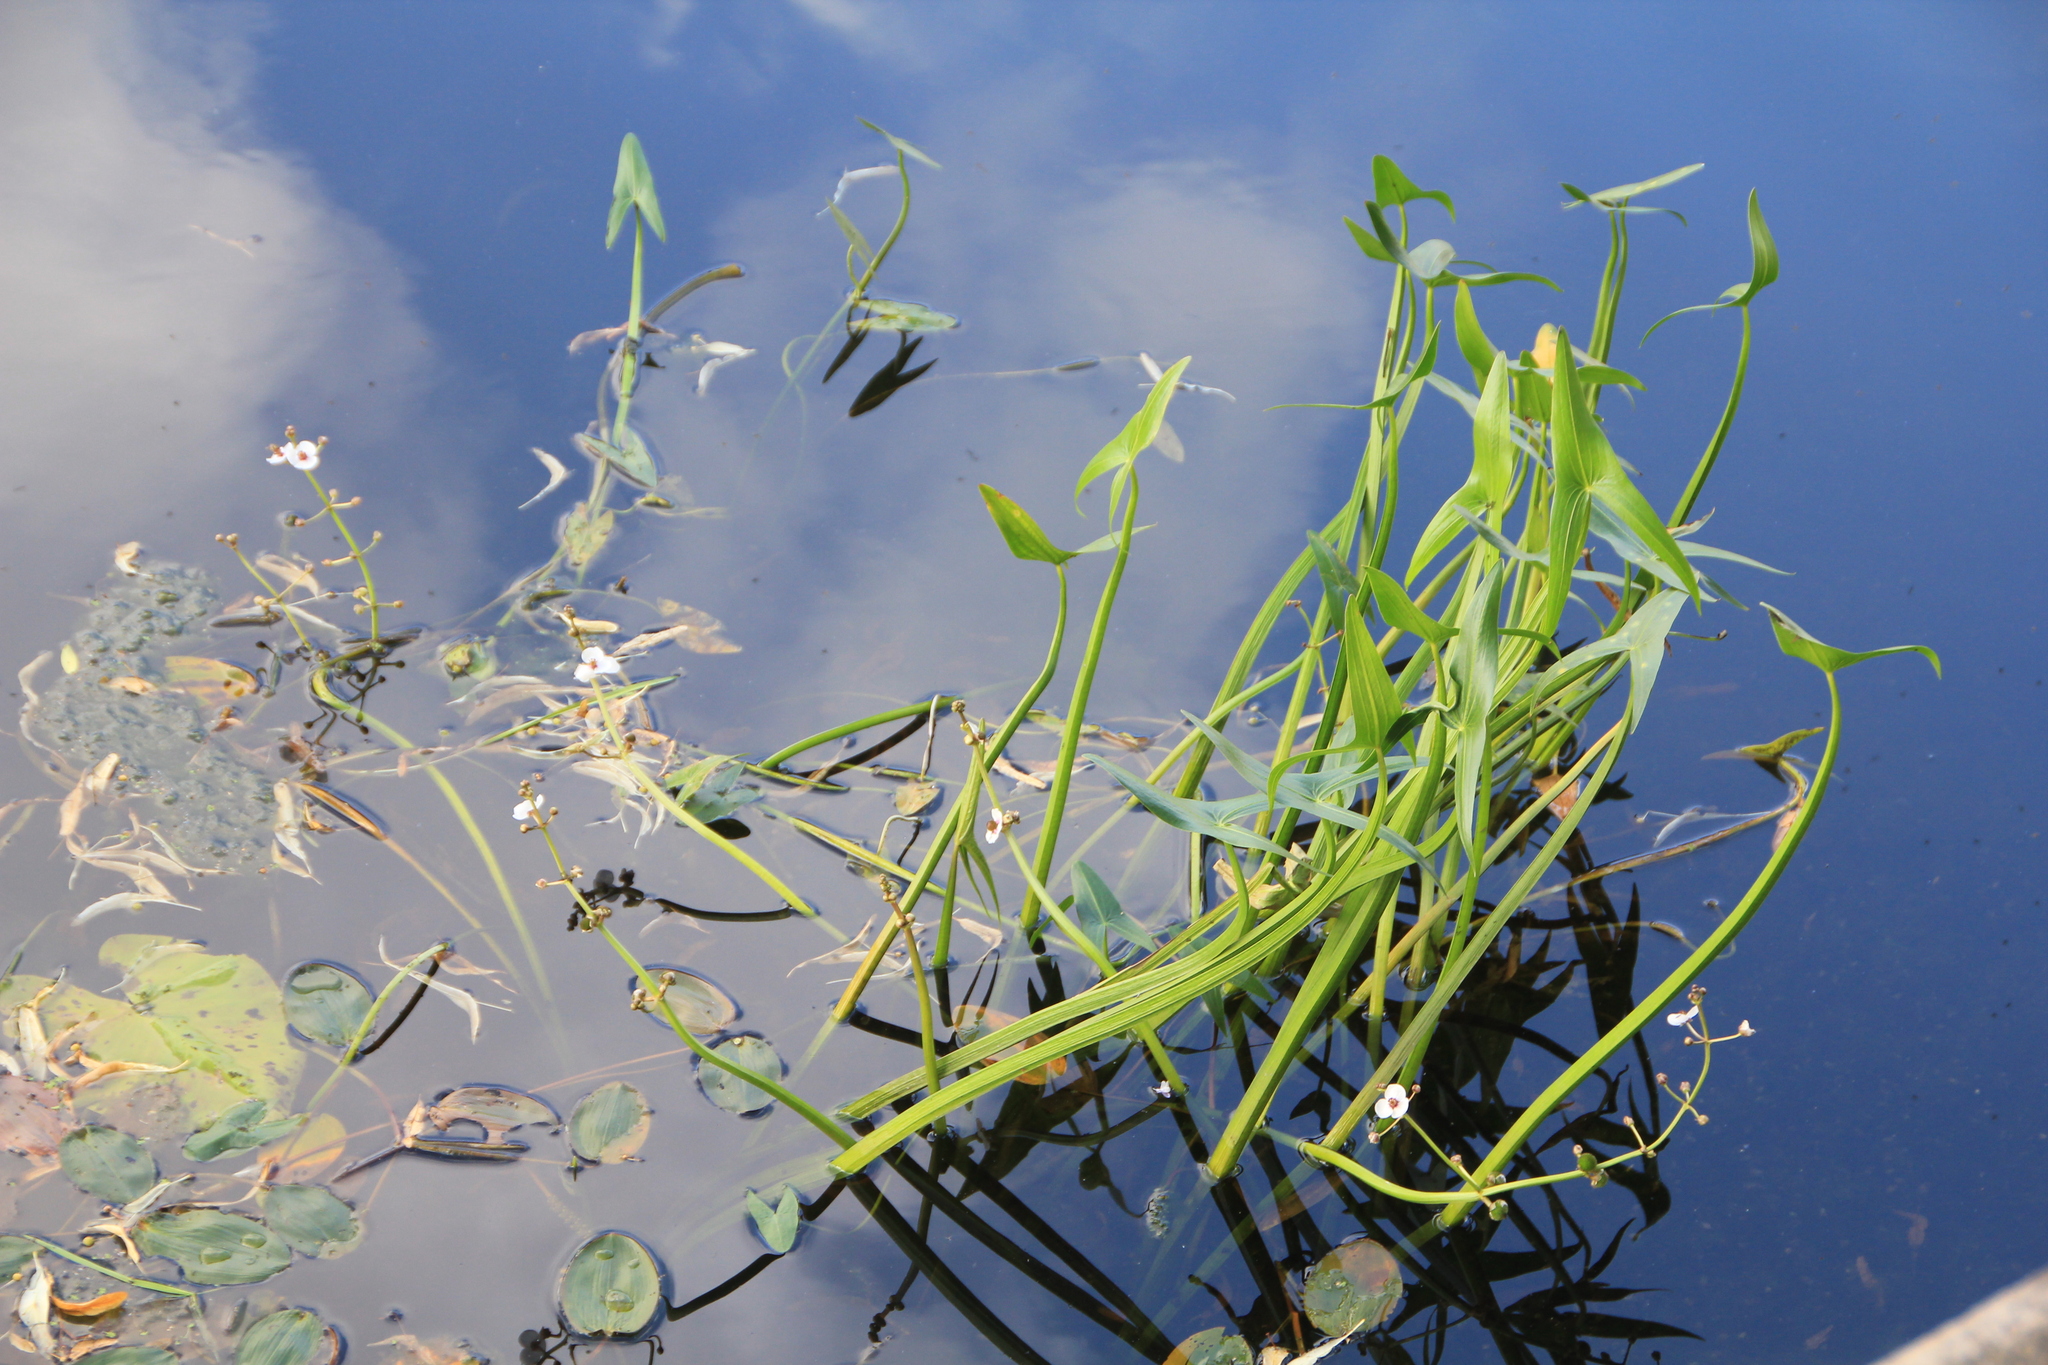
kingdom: Plantae
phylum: Tracheophyta
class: Liliopsida
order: Alismatales
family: Alismataceae
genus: Sagittaria
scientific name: Sagittaria sagittifolia
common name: Arrowhead
